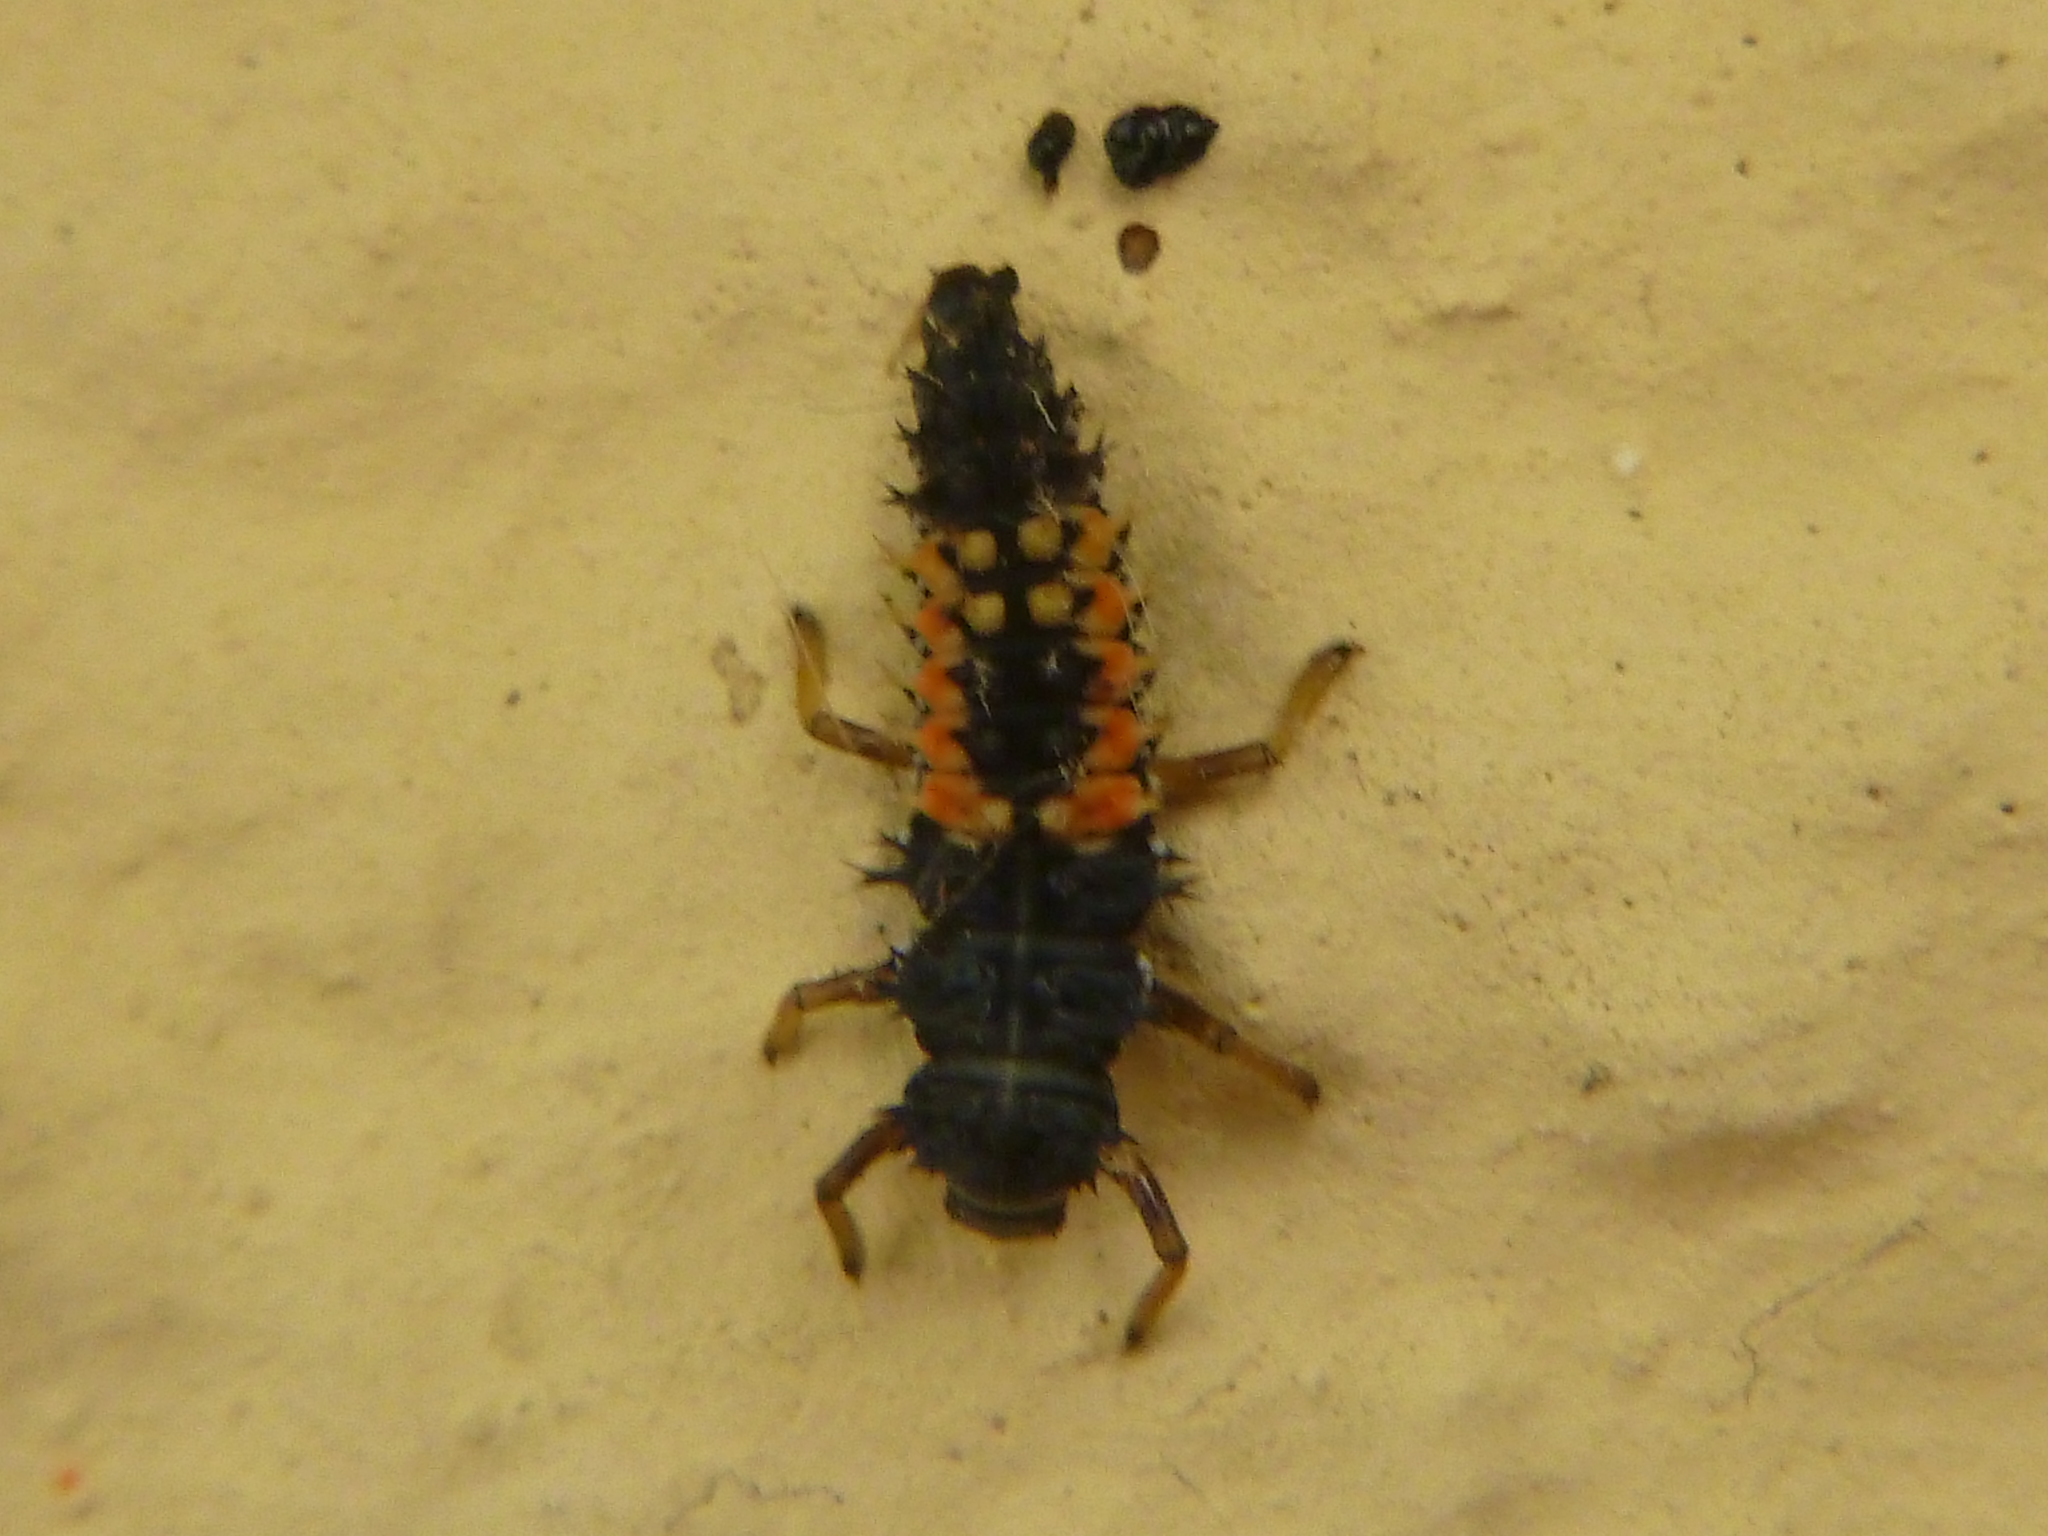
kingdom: Animalia
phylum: Arthropoda
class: Insecta
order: Coleoptera
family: Coccinellidae
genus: Harmonia
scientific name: Harmonia axyridis
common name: Harlequin ladybird
